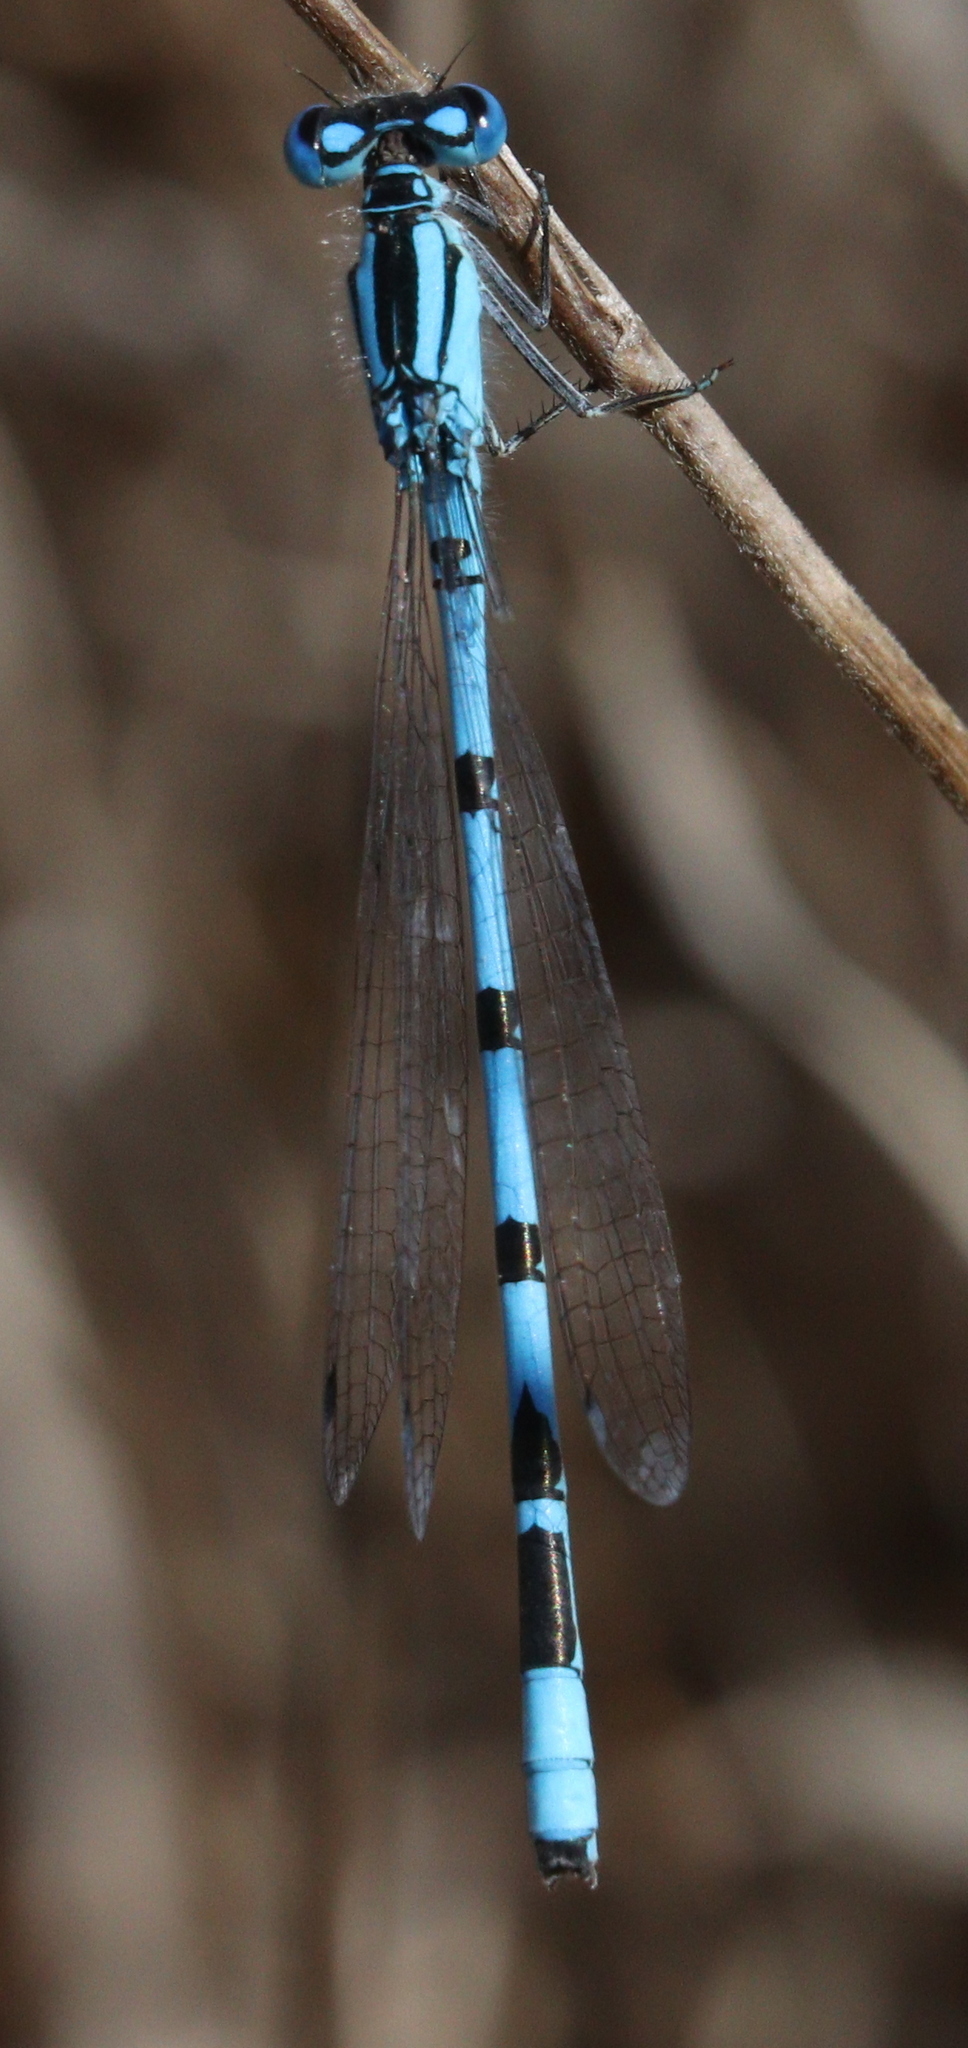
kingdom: Animalia
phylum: Arthropoda
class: Insecta
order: Odonata
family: Coenagrionidae
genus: Enallagma
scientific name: Enallagma cyathigerum
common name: Common blue damselfly
